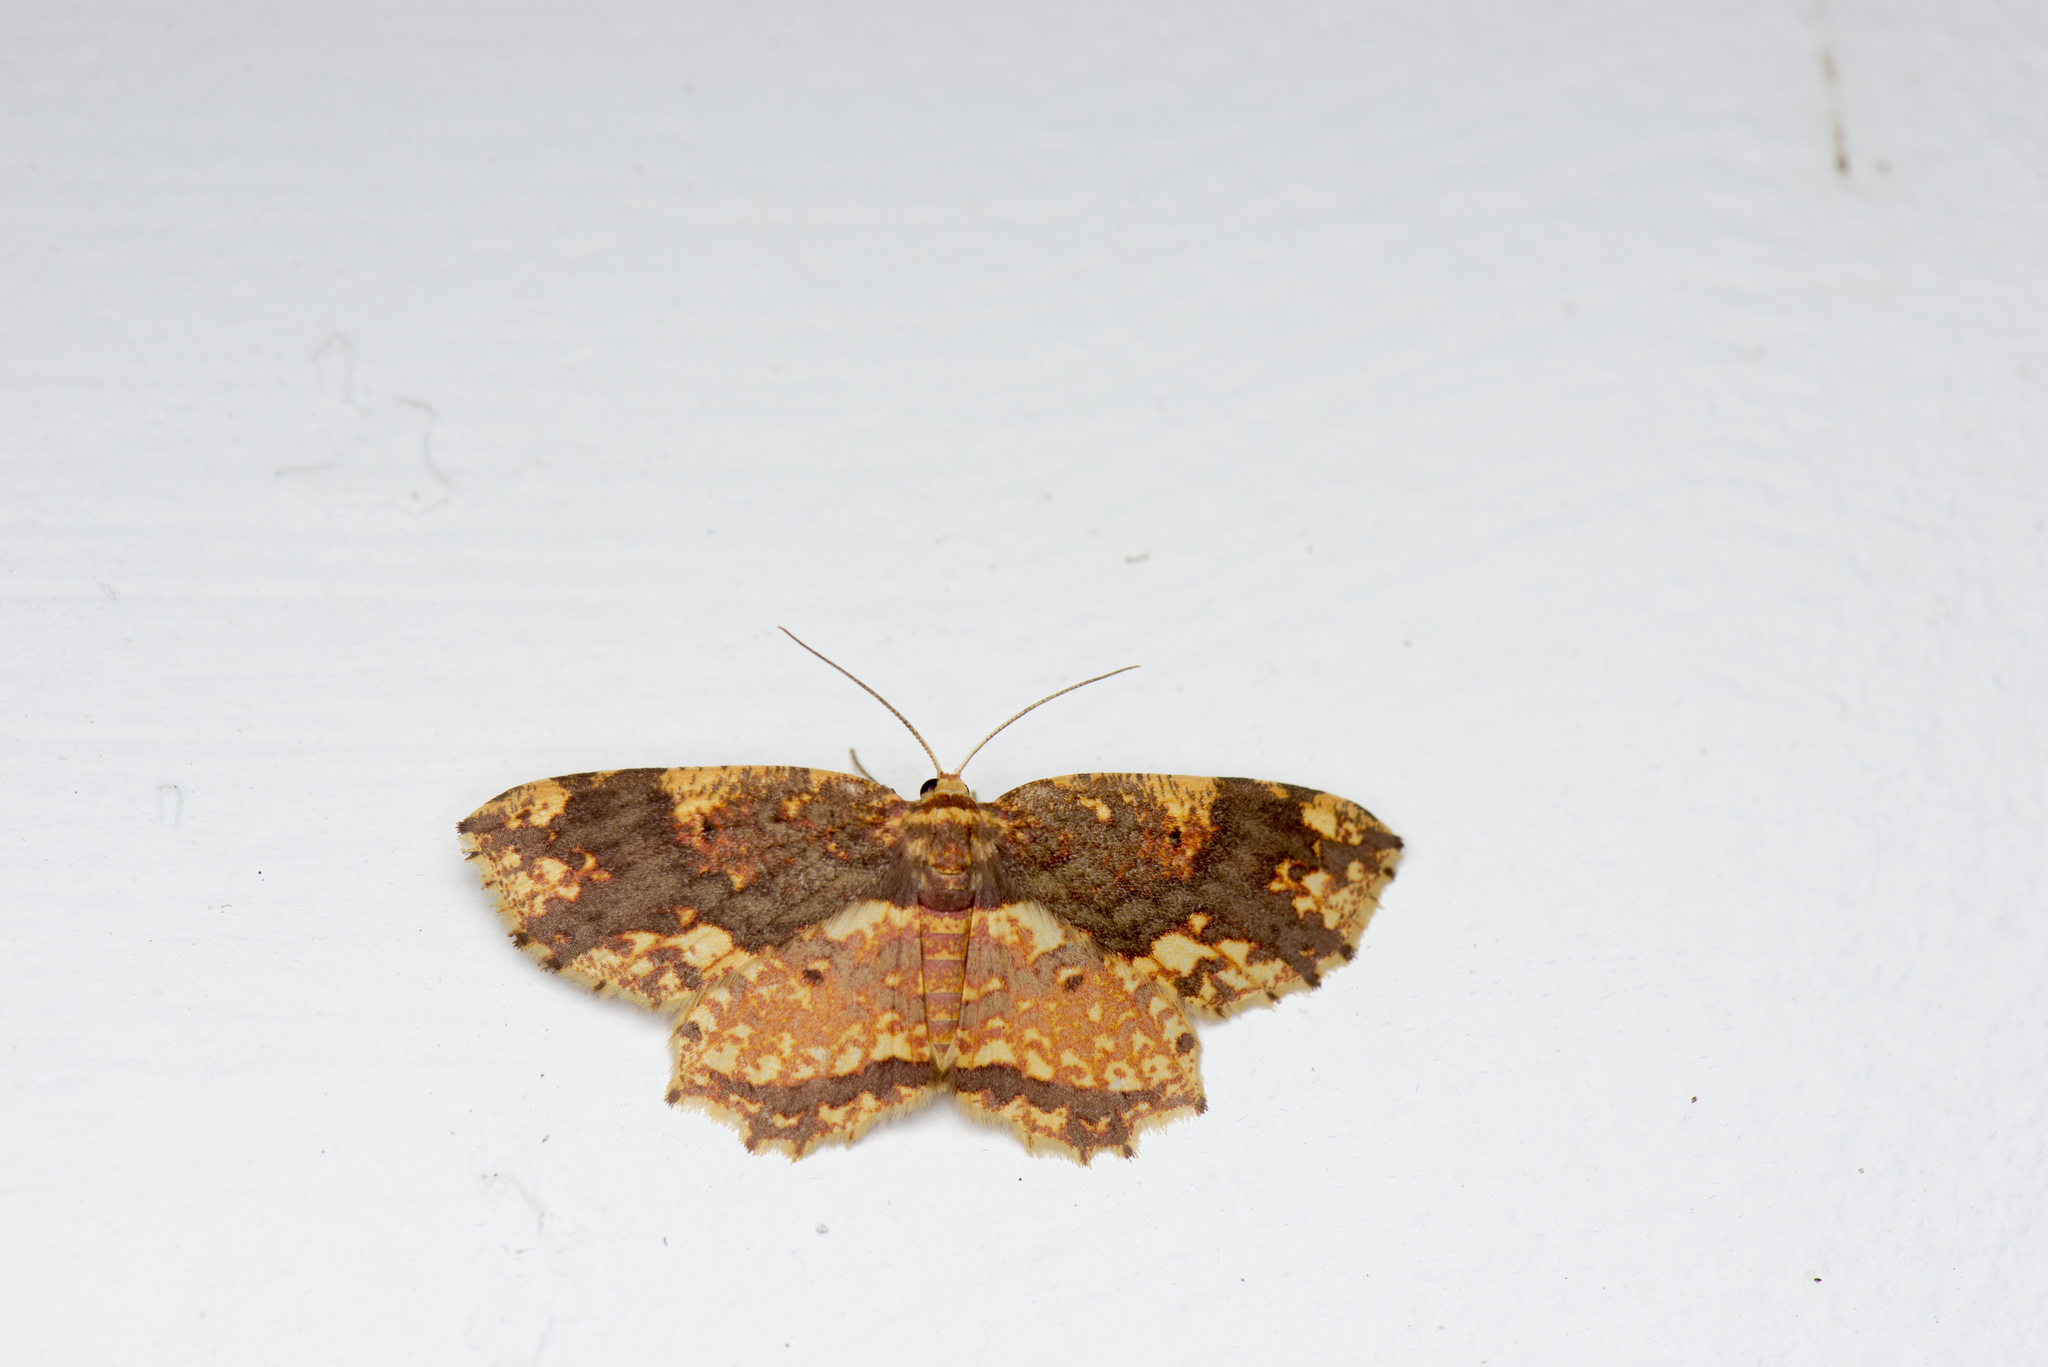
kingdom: Animalia
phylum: Arthropoda
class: Insecta
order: Lepidoptera
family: Geometridae
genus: Yashmakia
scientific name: Yashmakia suffusa
